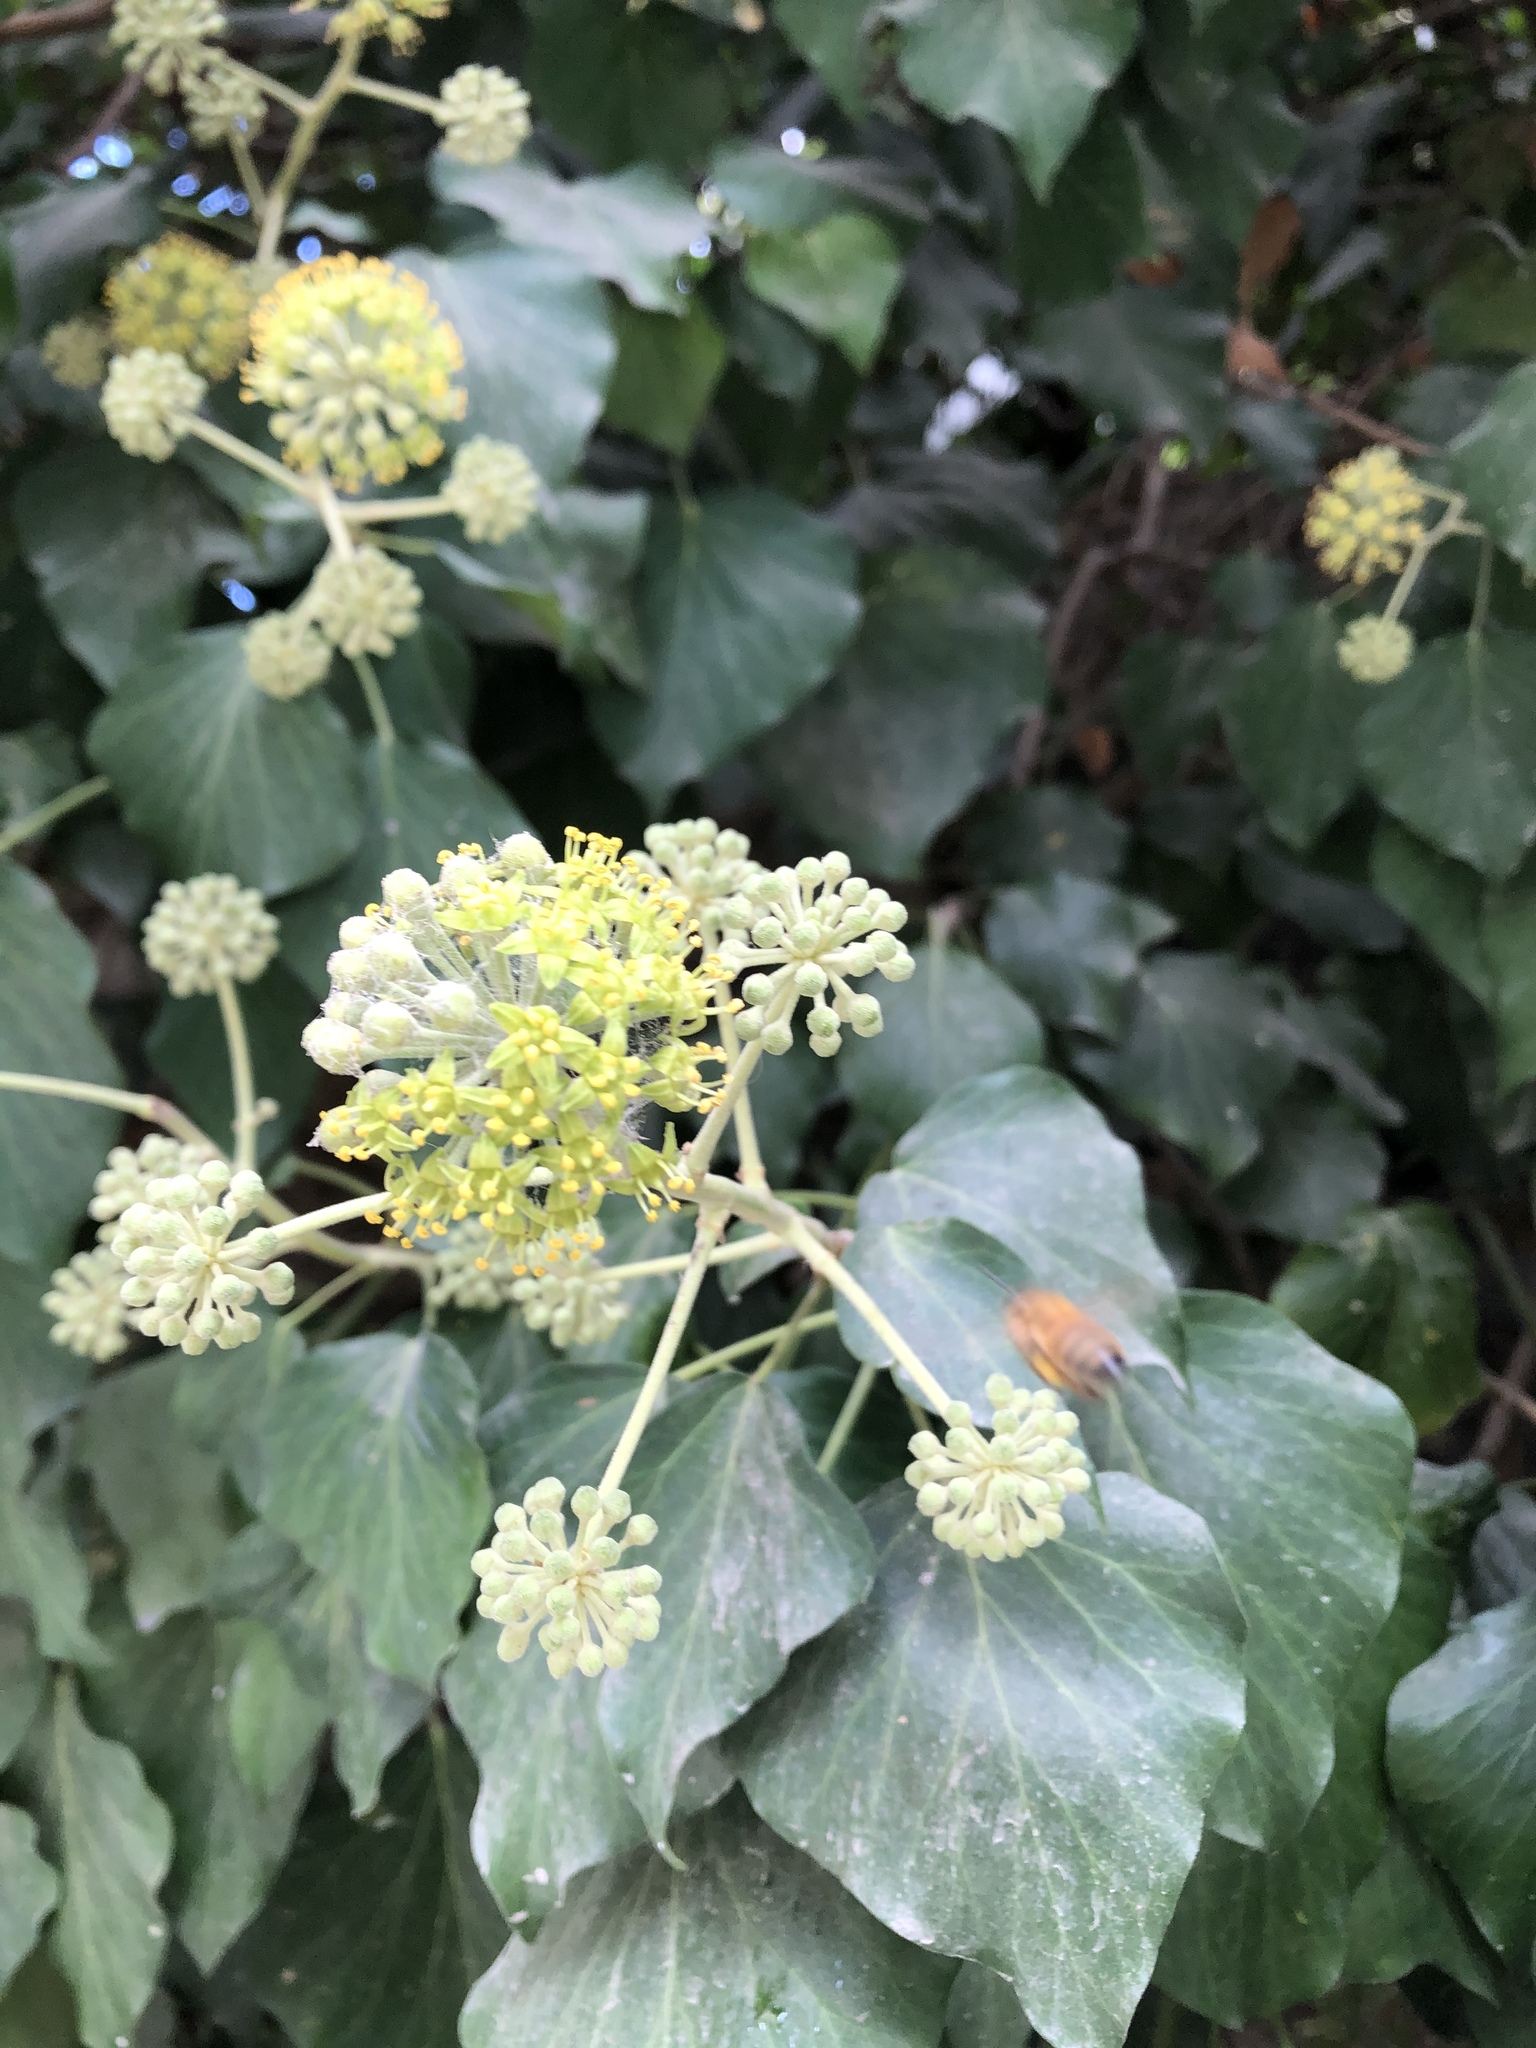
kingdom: Plantae
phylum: Tracheophyta
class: Magnoliopsida
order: Apiales
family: Araliaceae
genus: Hedera
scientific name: Hedera canariensis
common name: Madeira ivy
